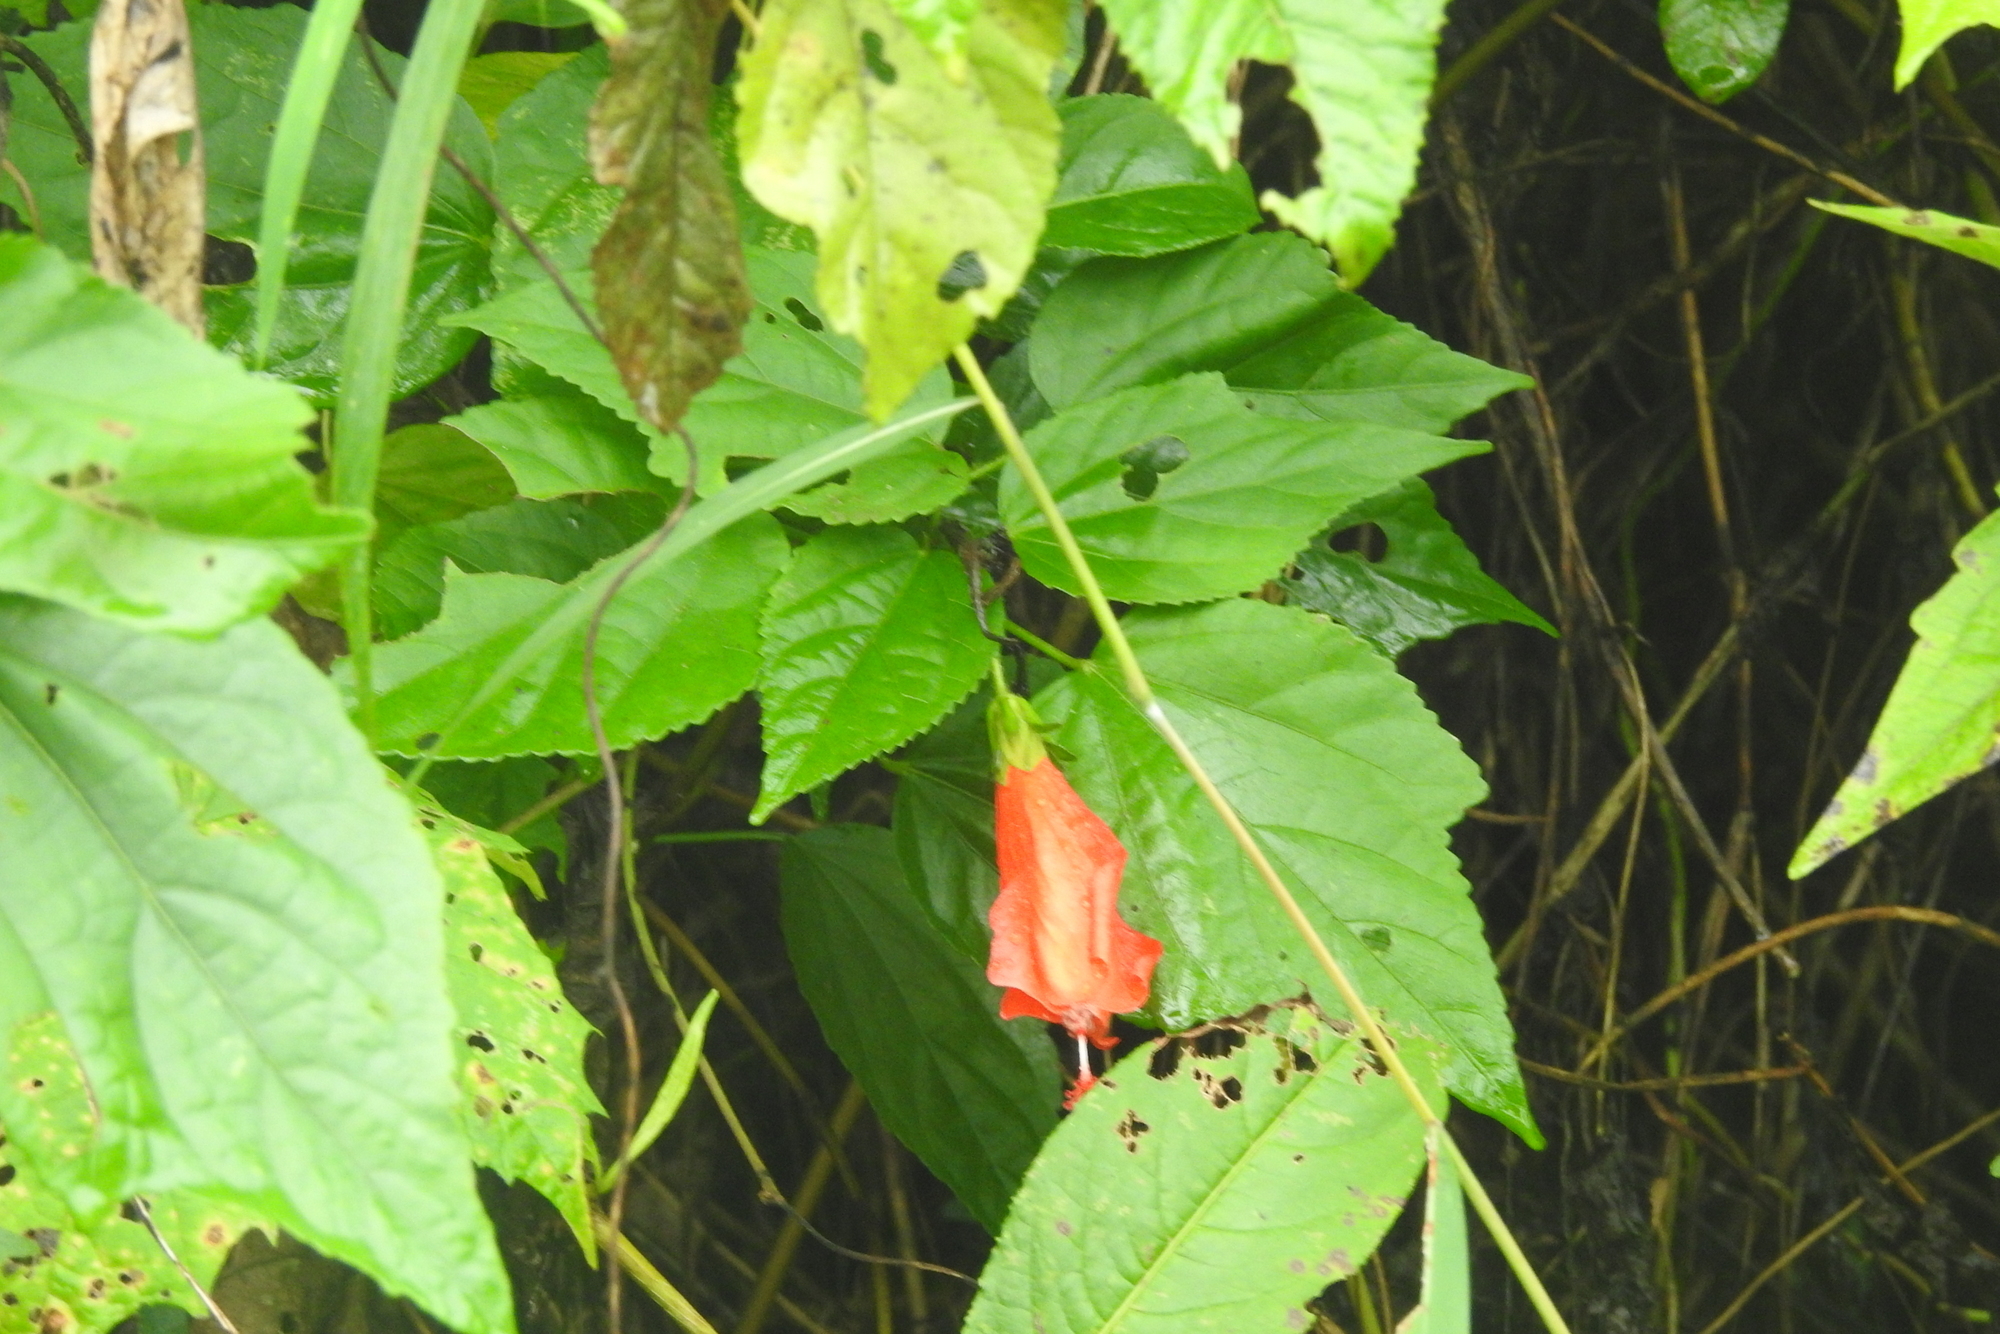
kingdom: Plantae
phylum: Tracheophyta
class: Magnoliopsida
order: Malvales
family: Malvaceae
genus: Malvaviscus
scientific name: Malvaviscus penduliflorus
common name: Mazapan
